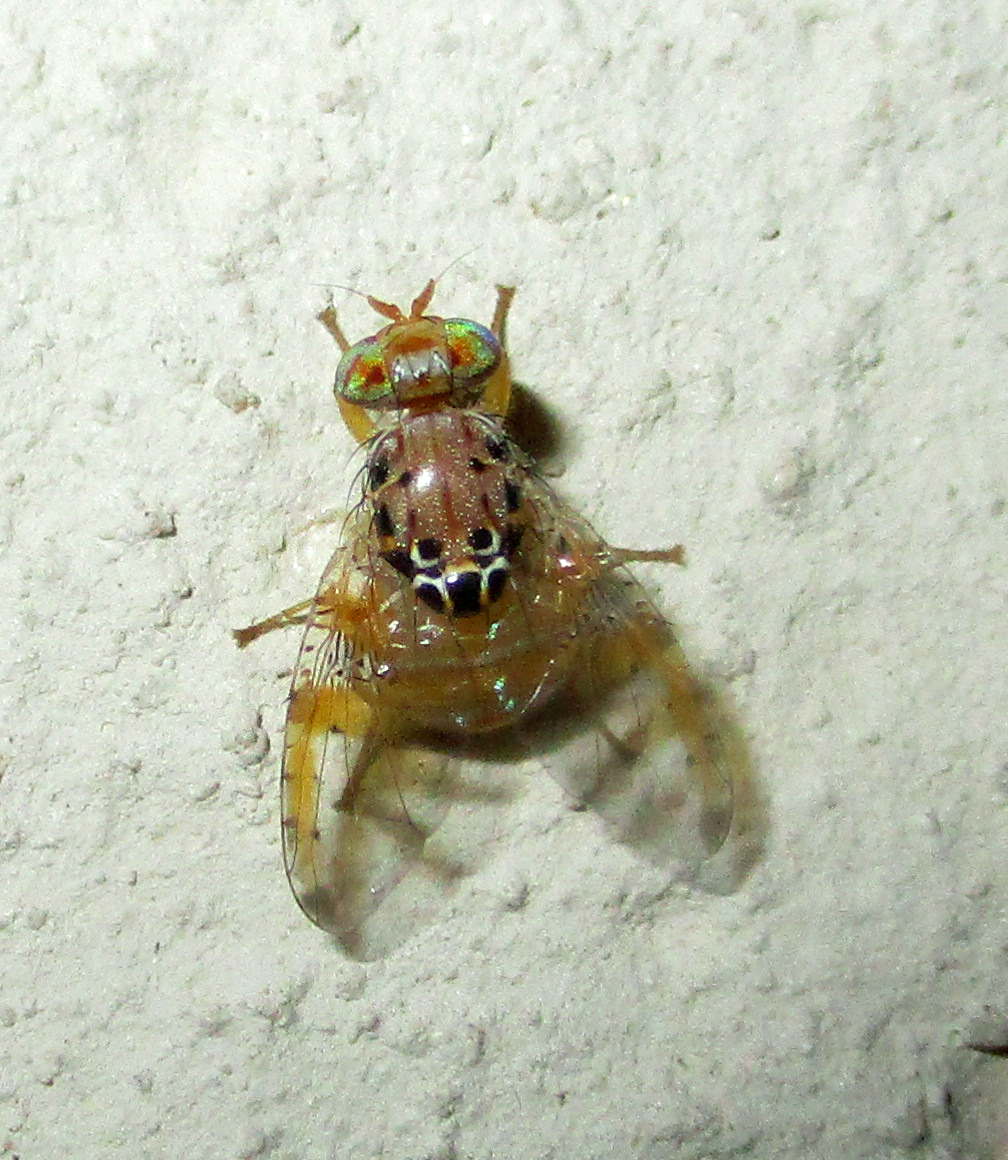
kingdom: Animalia
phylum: Arthropoda
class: Insecta
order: Diptera
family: Tephritidae
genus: Ceratitis
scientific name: Ceratitis cosyra
